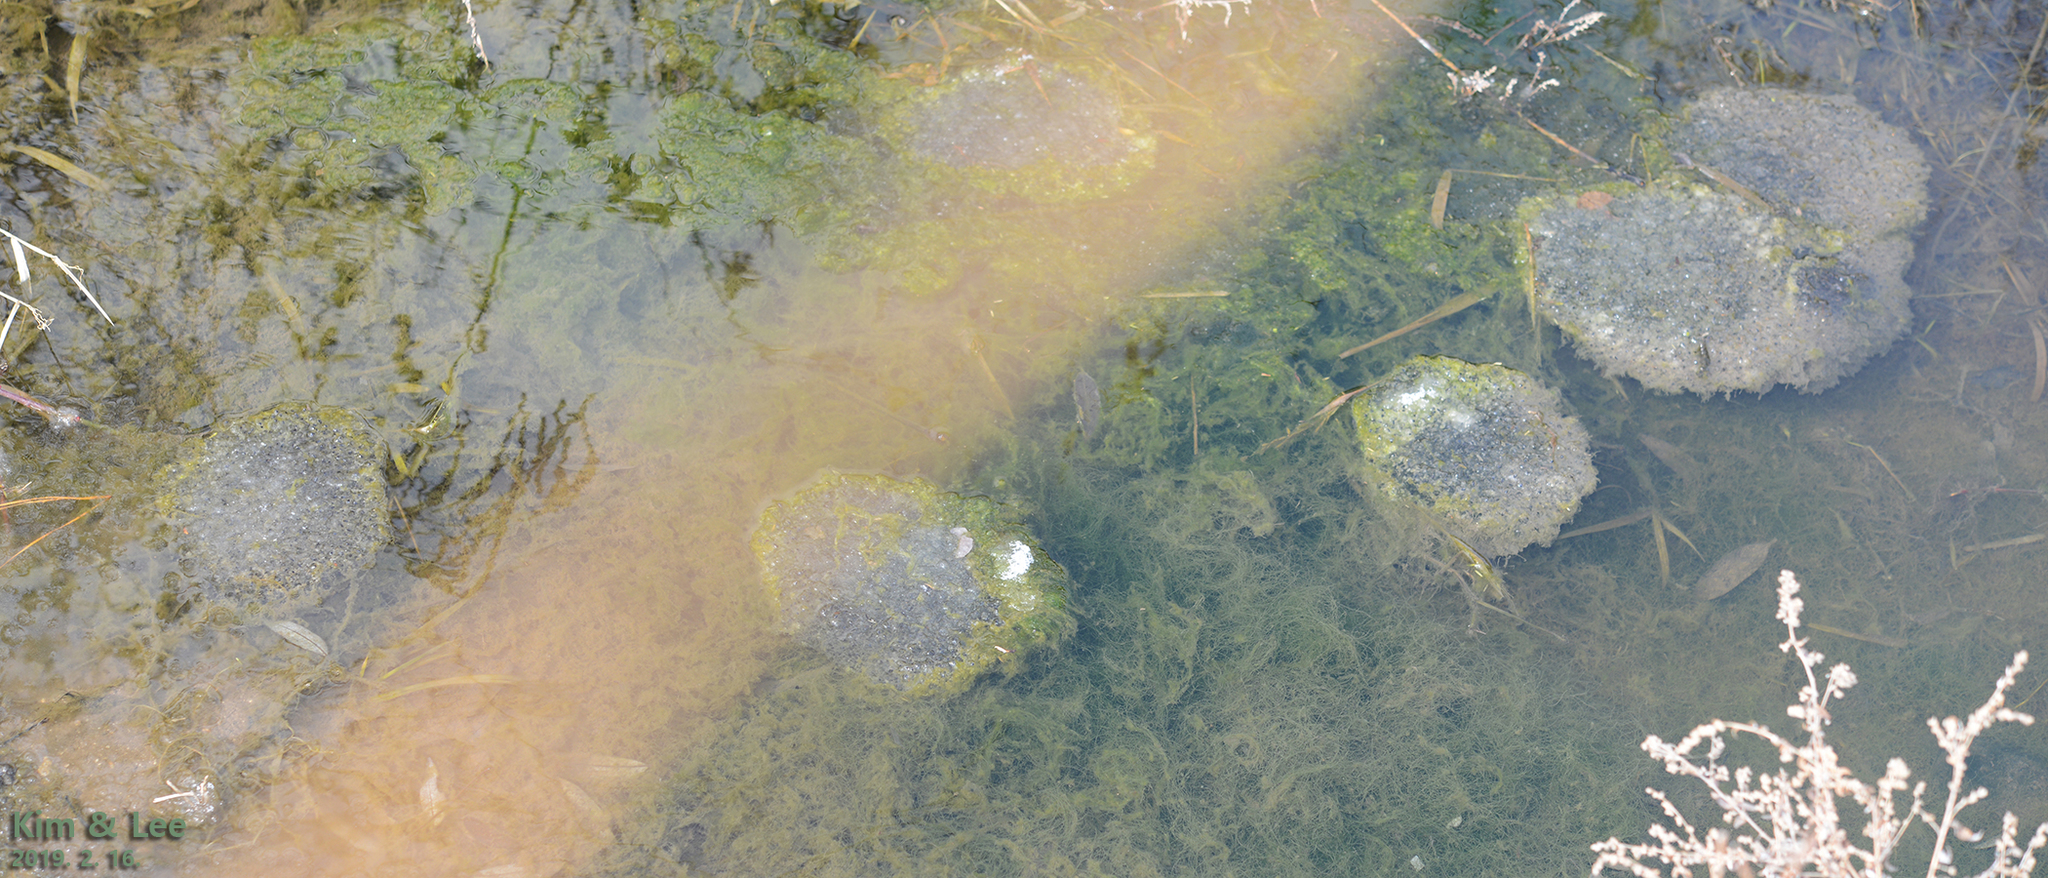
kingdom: Animalia
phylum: Chordata
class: Amphibia
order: Anura
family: Ranidae
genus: Rana
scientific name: Rana uenoi
